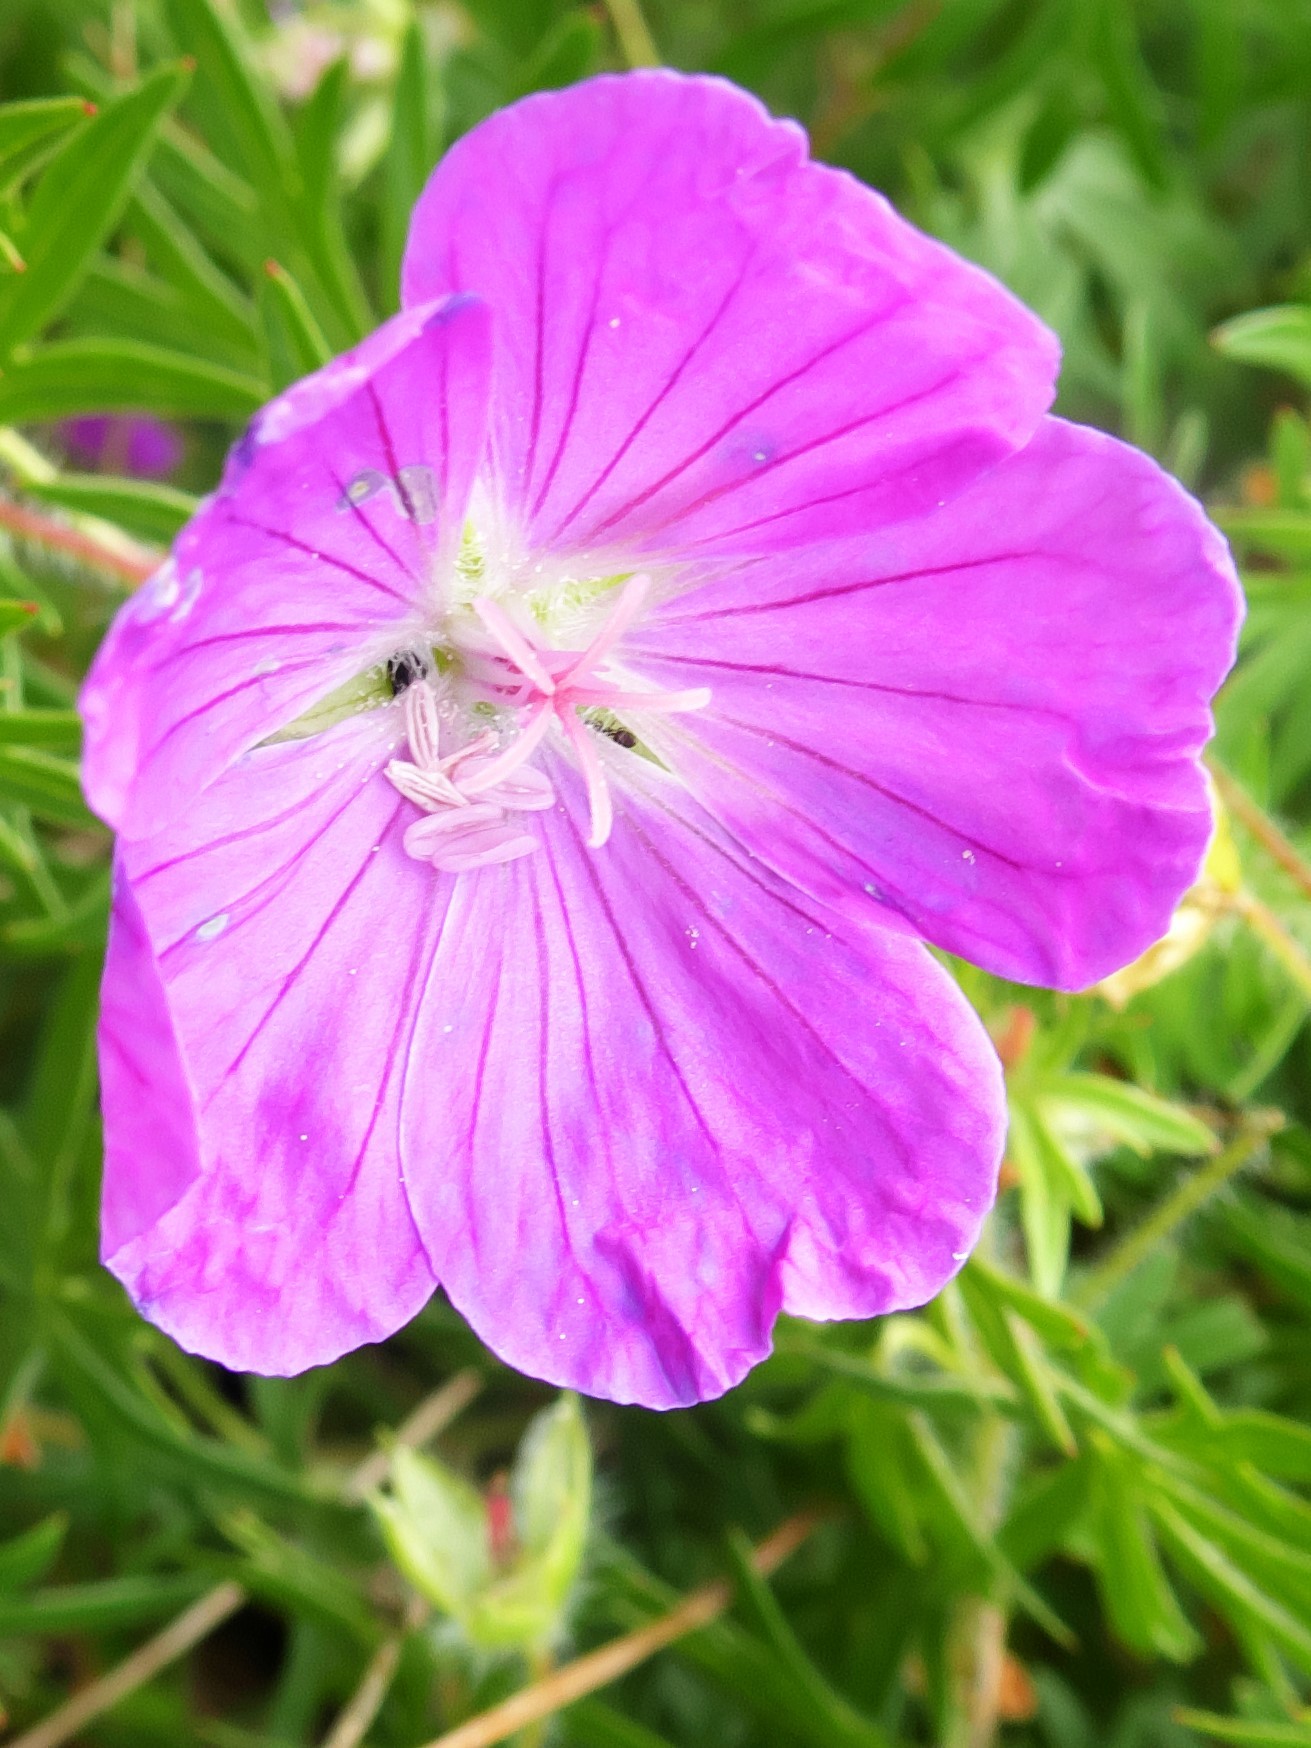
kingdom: Plantae
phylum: Tracheophyta
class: Magnoliopsida
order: Geraniales
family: Geraniaceae
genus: Geranium
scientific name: Geranium sanguineum
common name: Bloody crane's-bill
